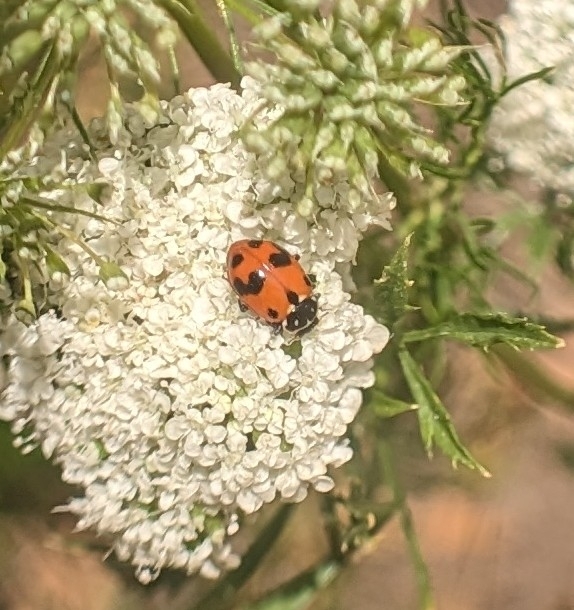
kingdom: Animalia
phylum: Arthropoda
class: Insecta
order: Coleoptera
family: Coccinellidae
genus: Hippodamia
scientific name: Hippodamia variegata
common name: Ladybird beetle
